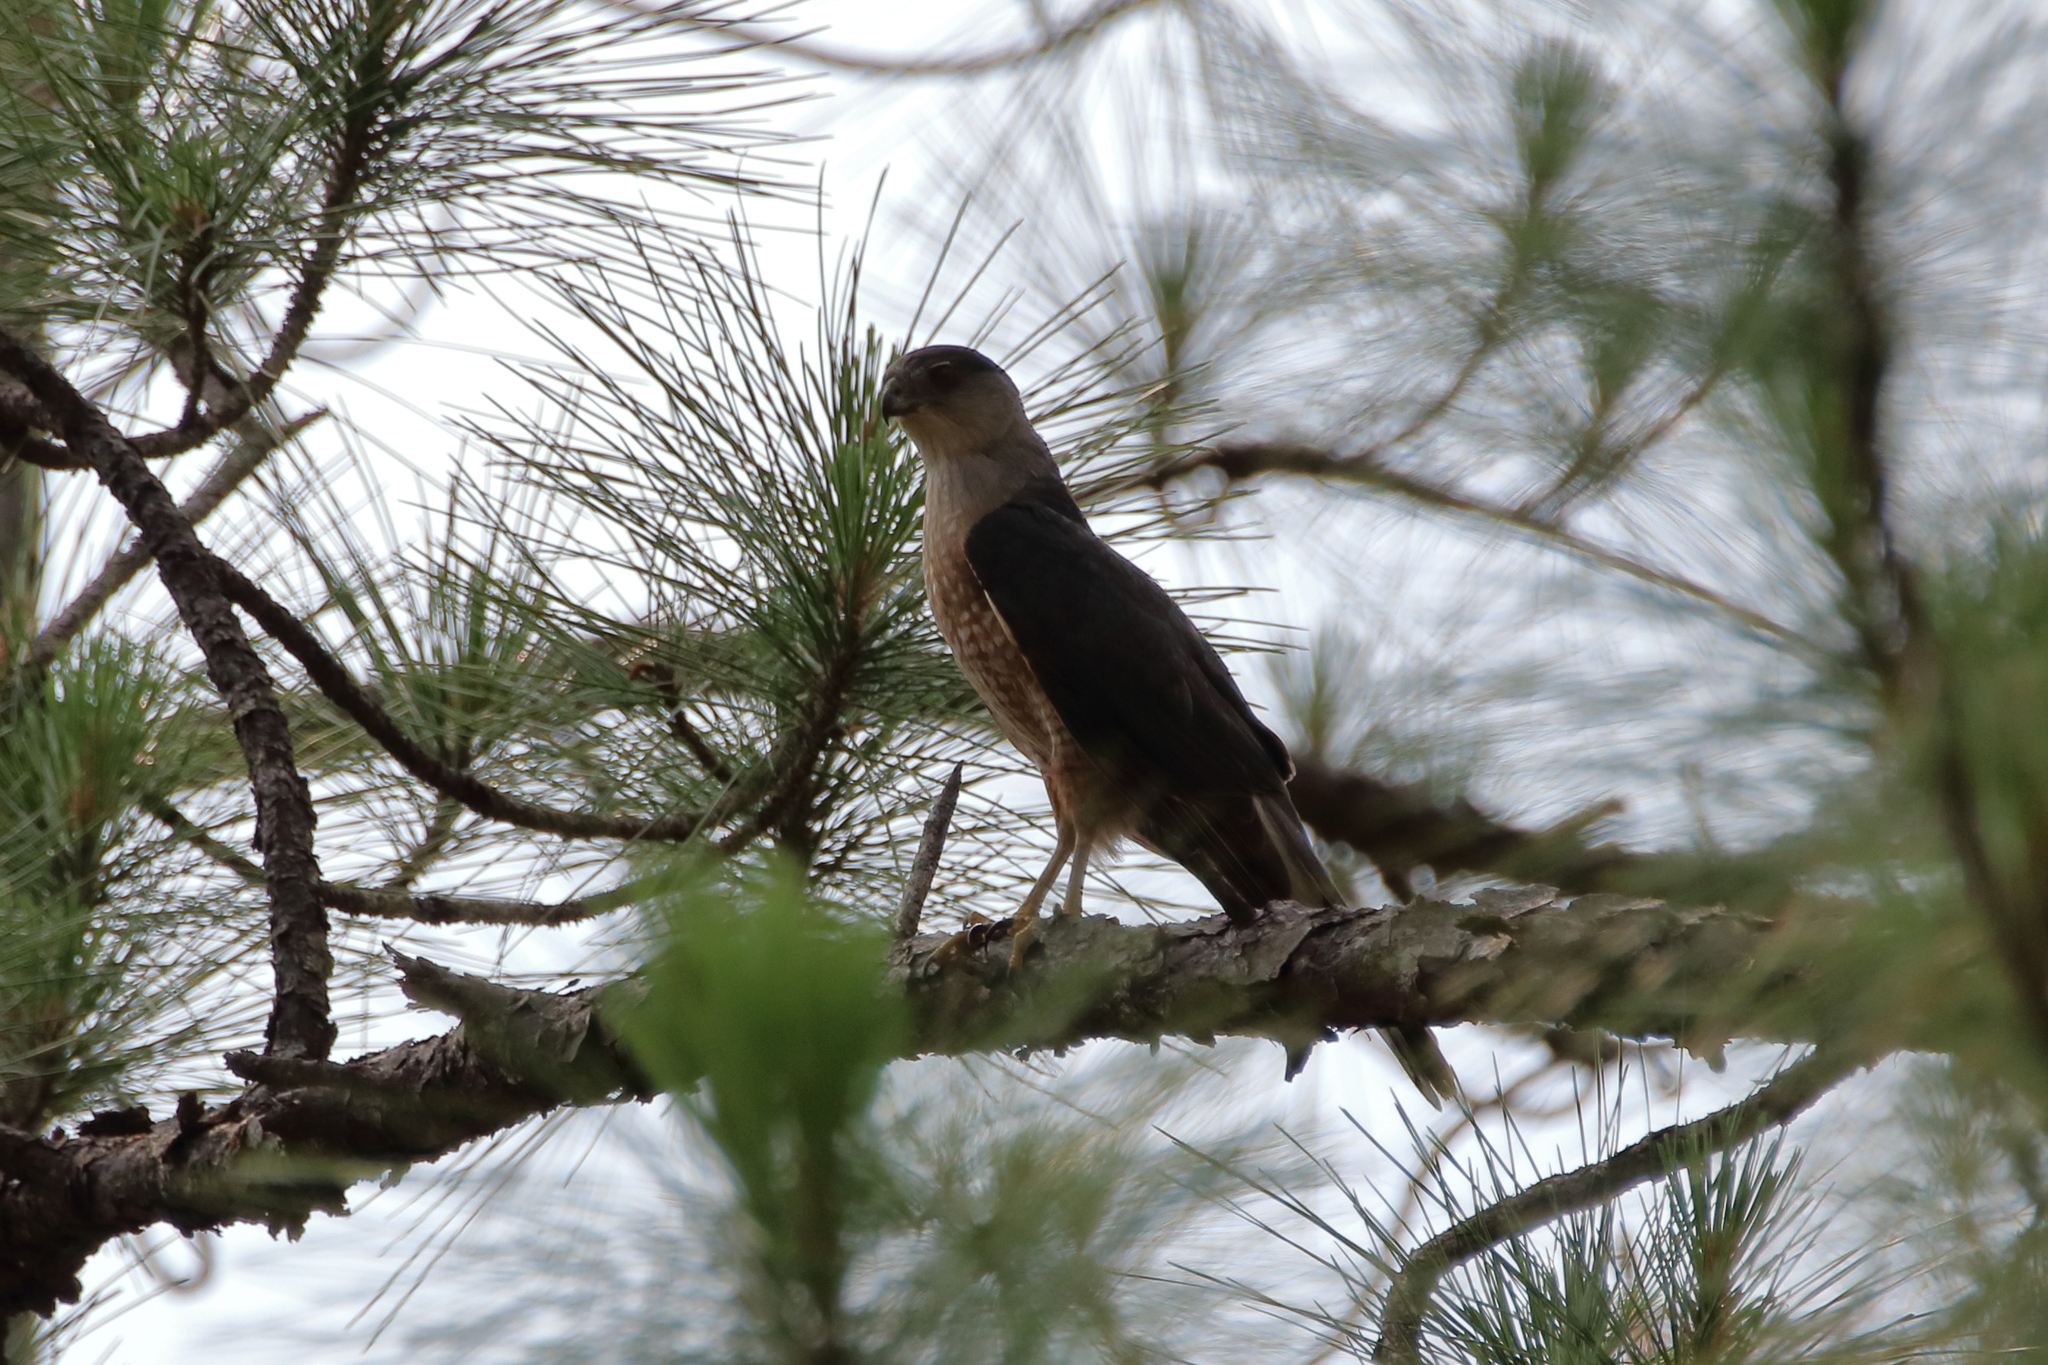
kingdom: Animalia
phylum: Chordata
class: Aves
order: Accipitriformes
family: Accipitridae
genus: Accipiter
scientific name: Accipiter cooperii
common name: Cooper's hawk
